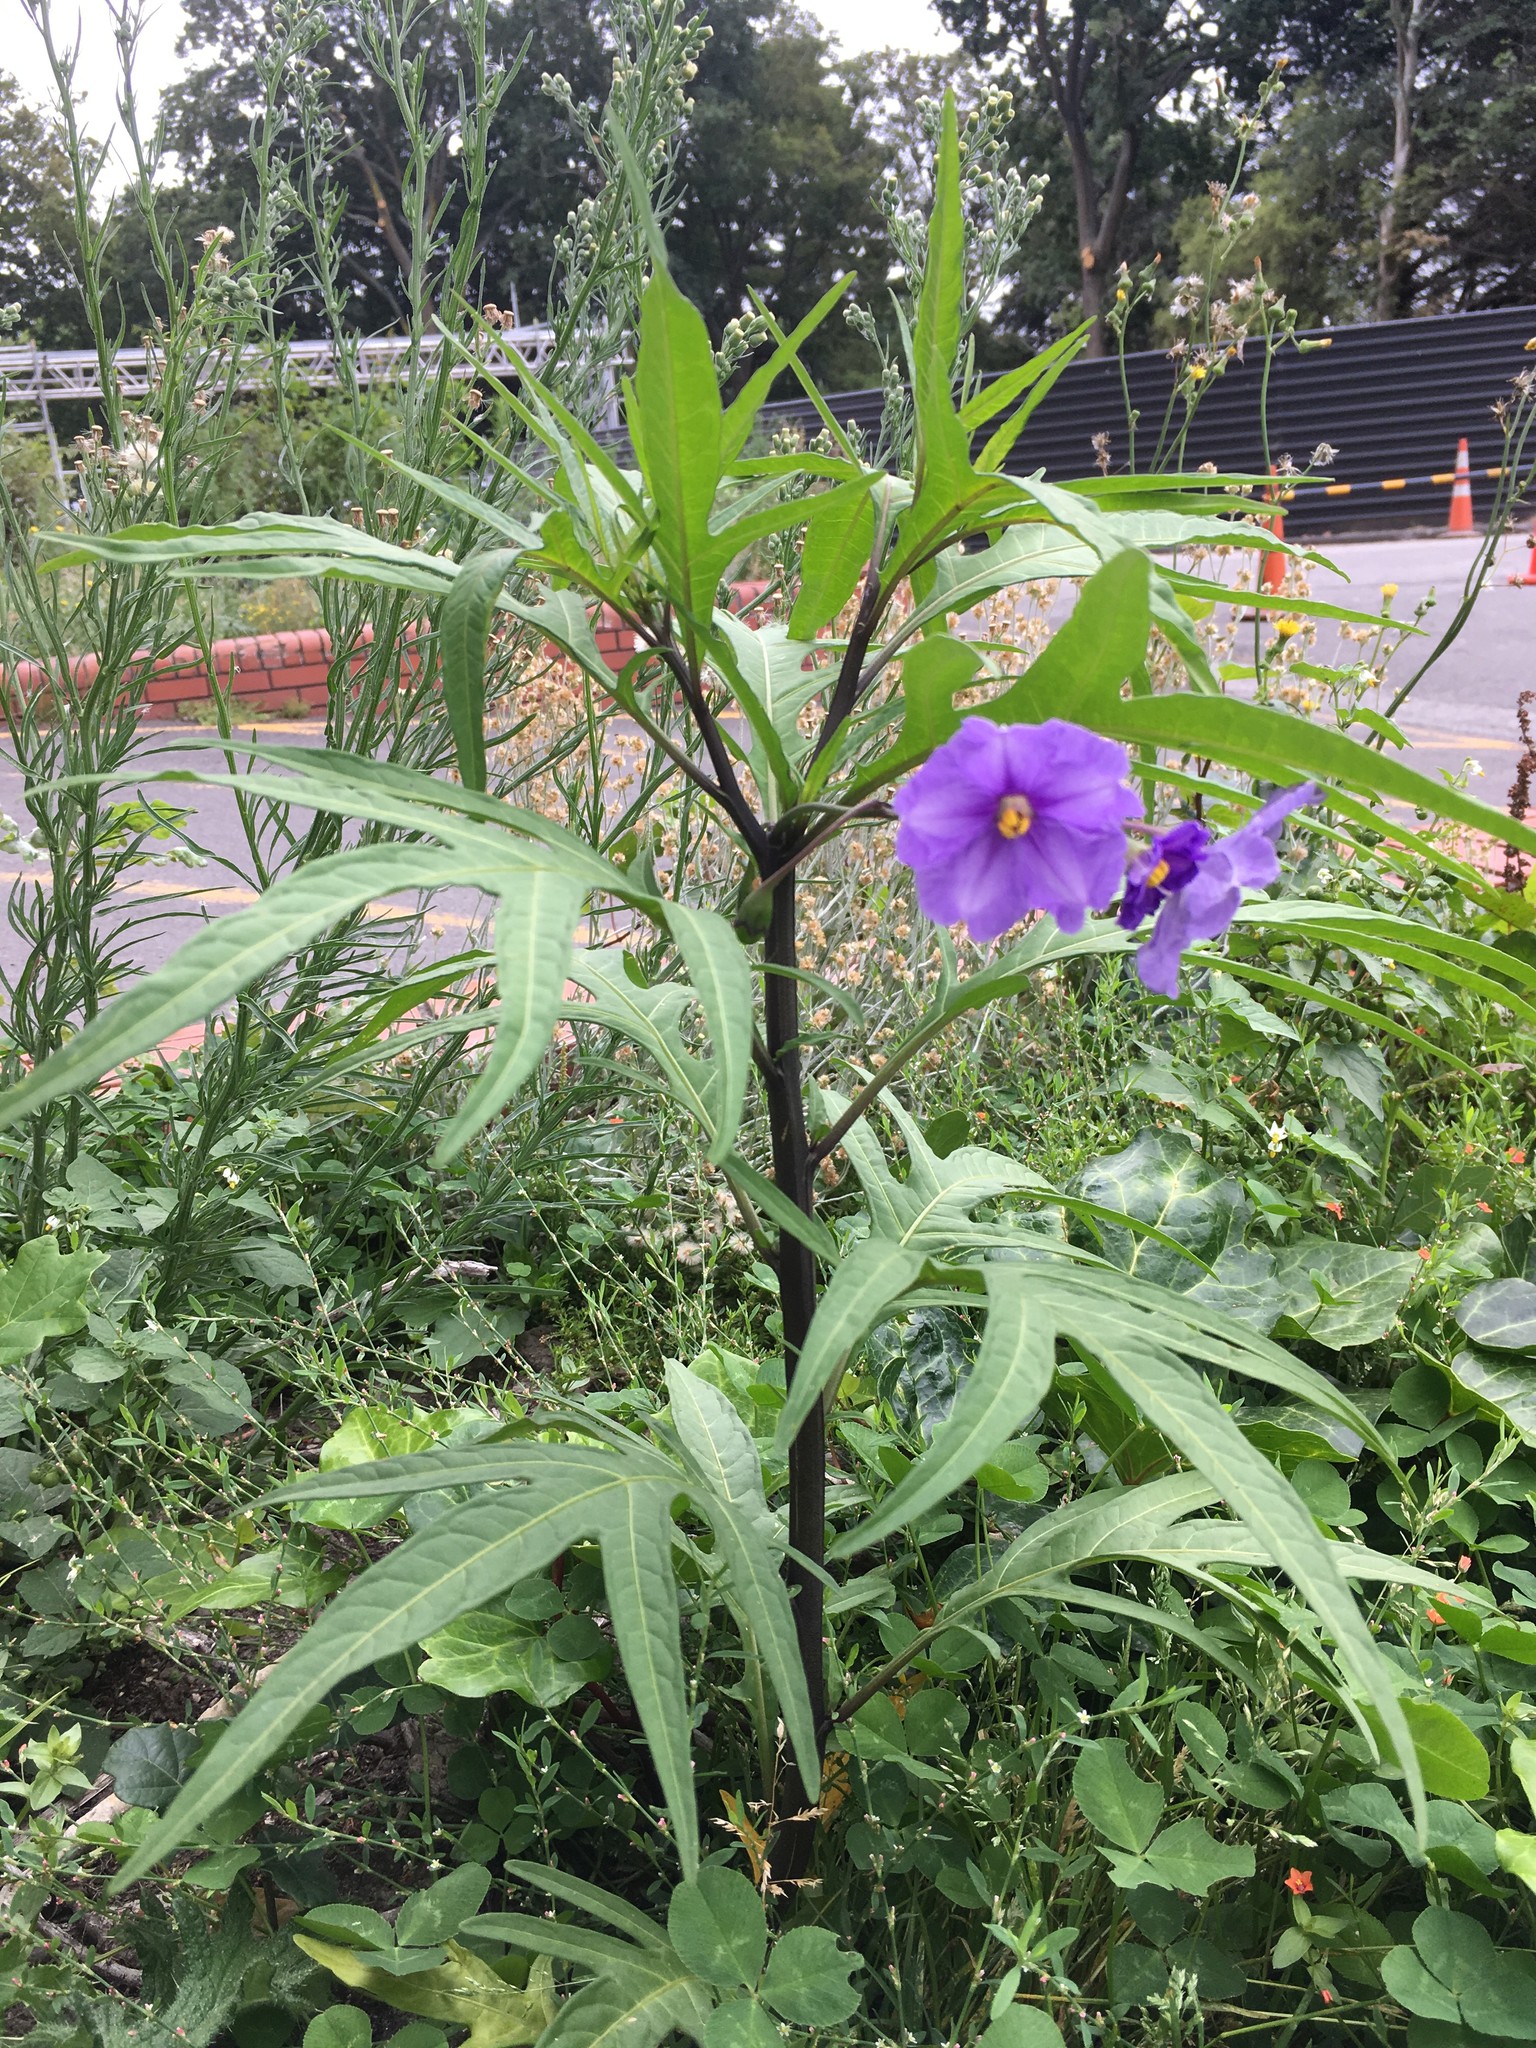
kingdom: Plantae
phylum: Tracheophyta
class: Magnoliopsida
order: Solanales
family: Solanaceae
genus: Solanum
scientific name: Solanum laciniatum
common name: Kangaroo-apple
